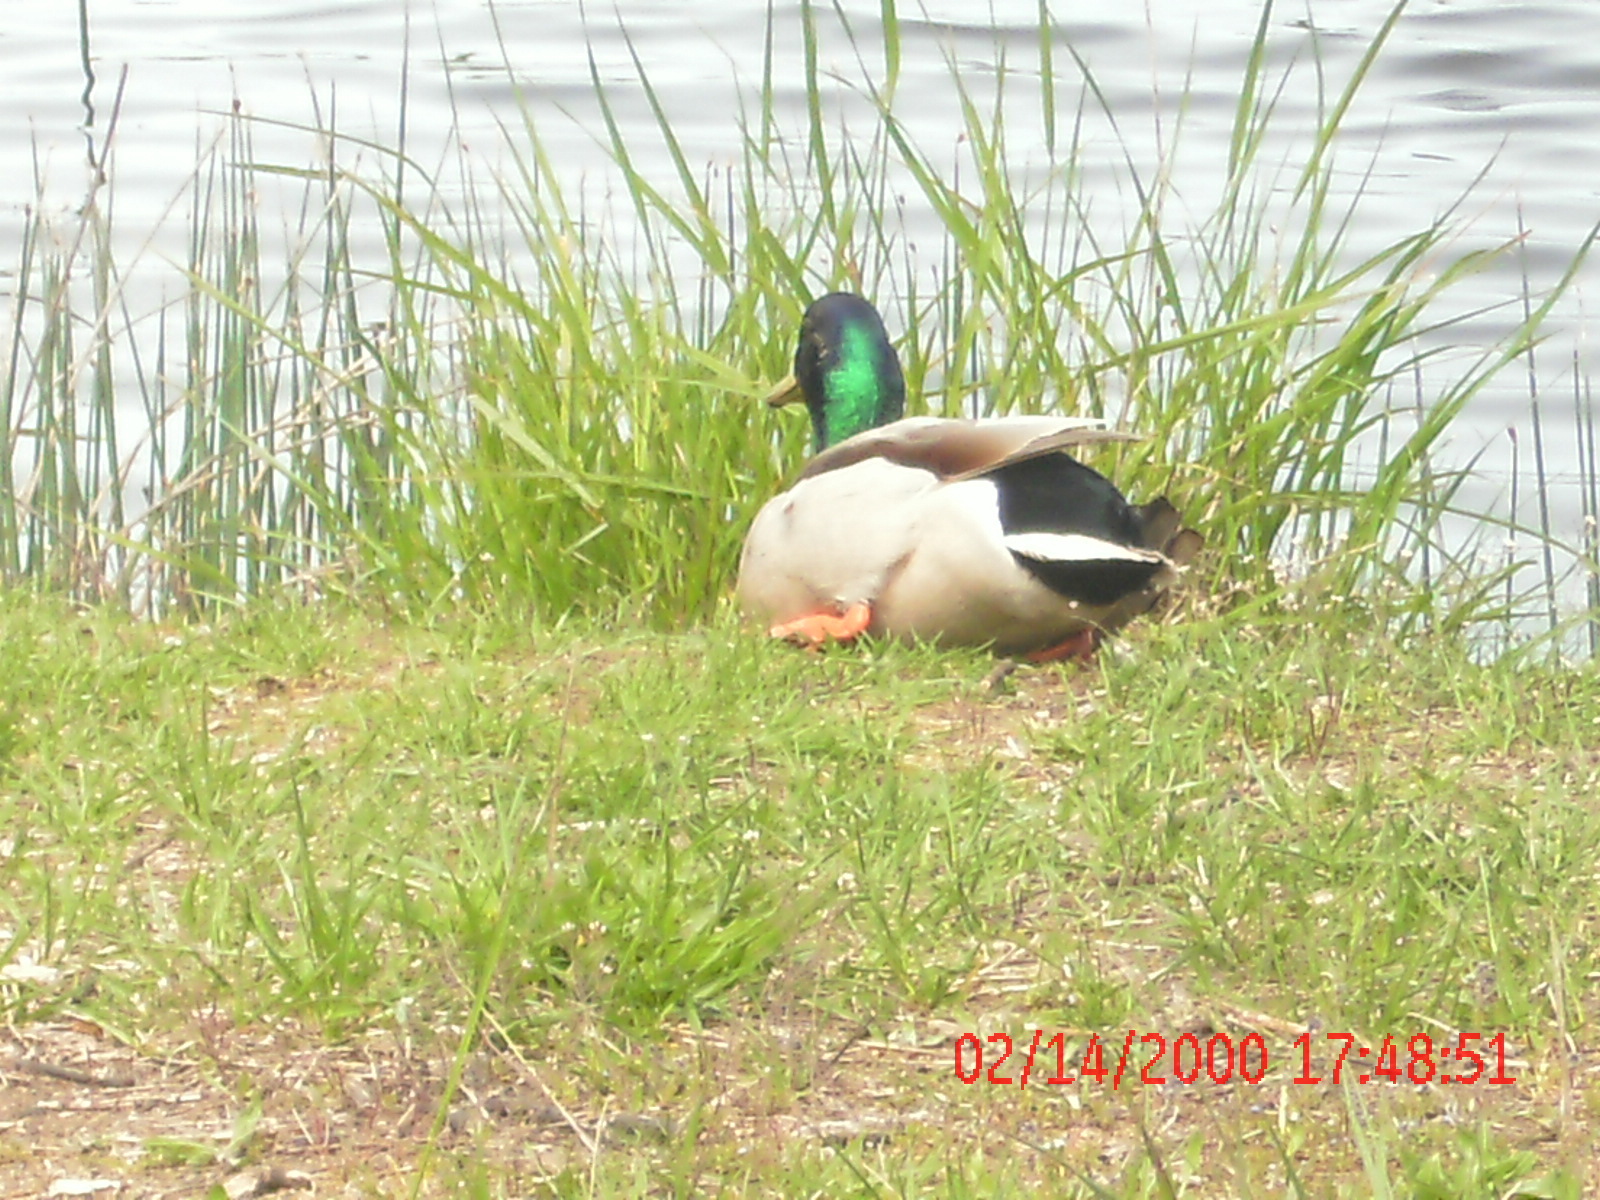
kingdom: Animalia
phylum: Chordata
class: Aves
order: Anseriformes
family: Anatidae
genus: Anas
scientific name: Anas platyrhynchos
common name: Mallard
